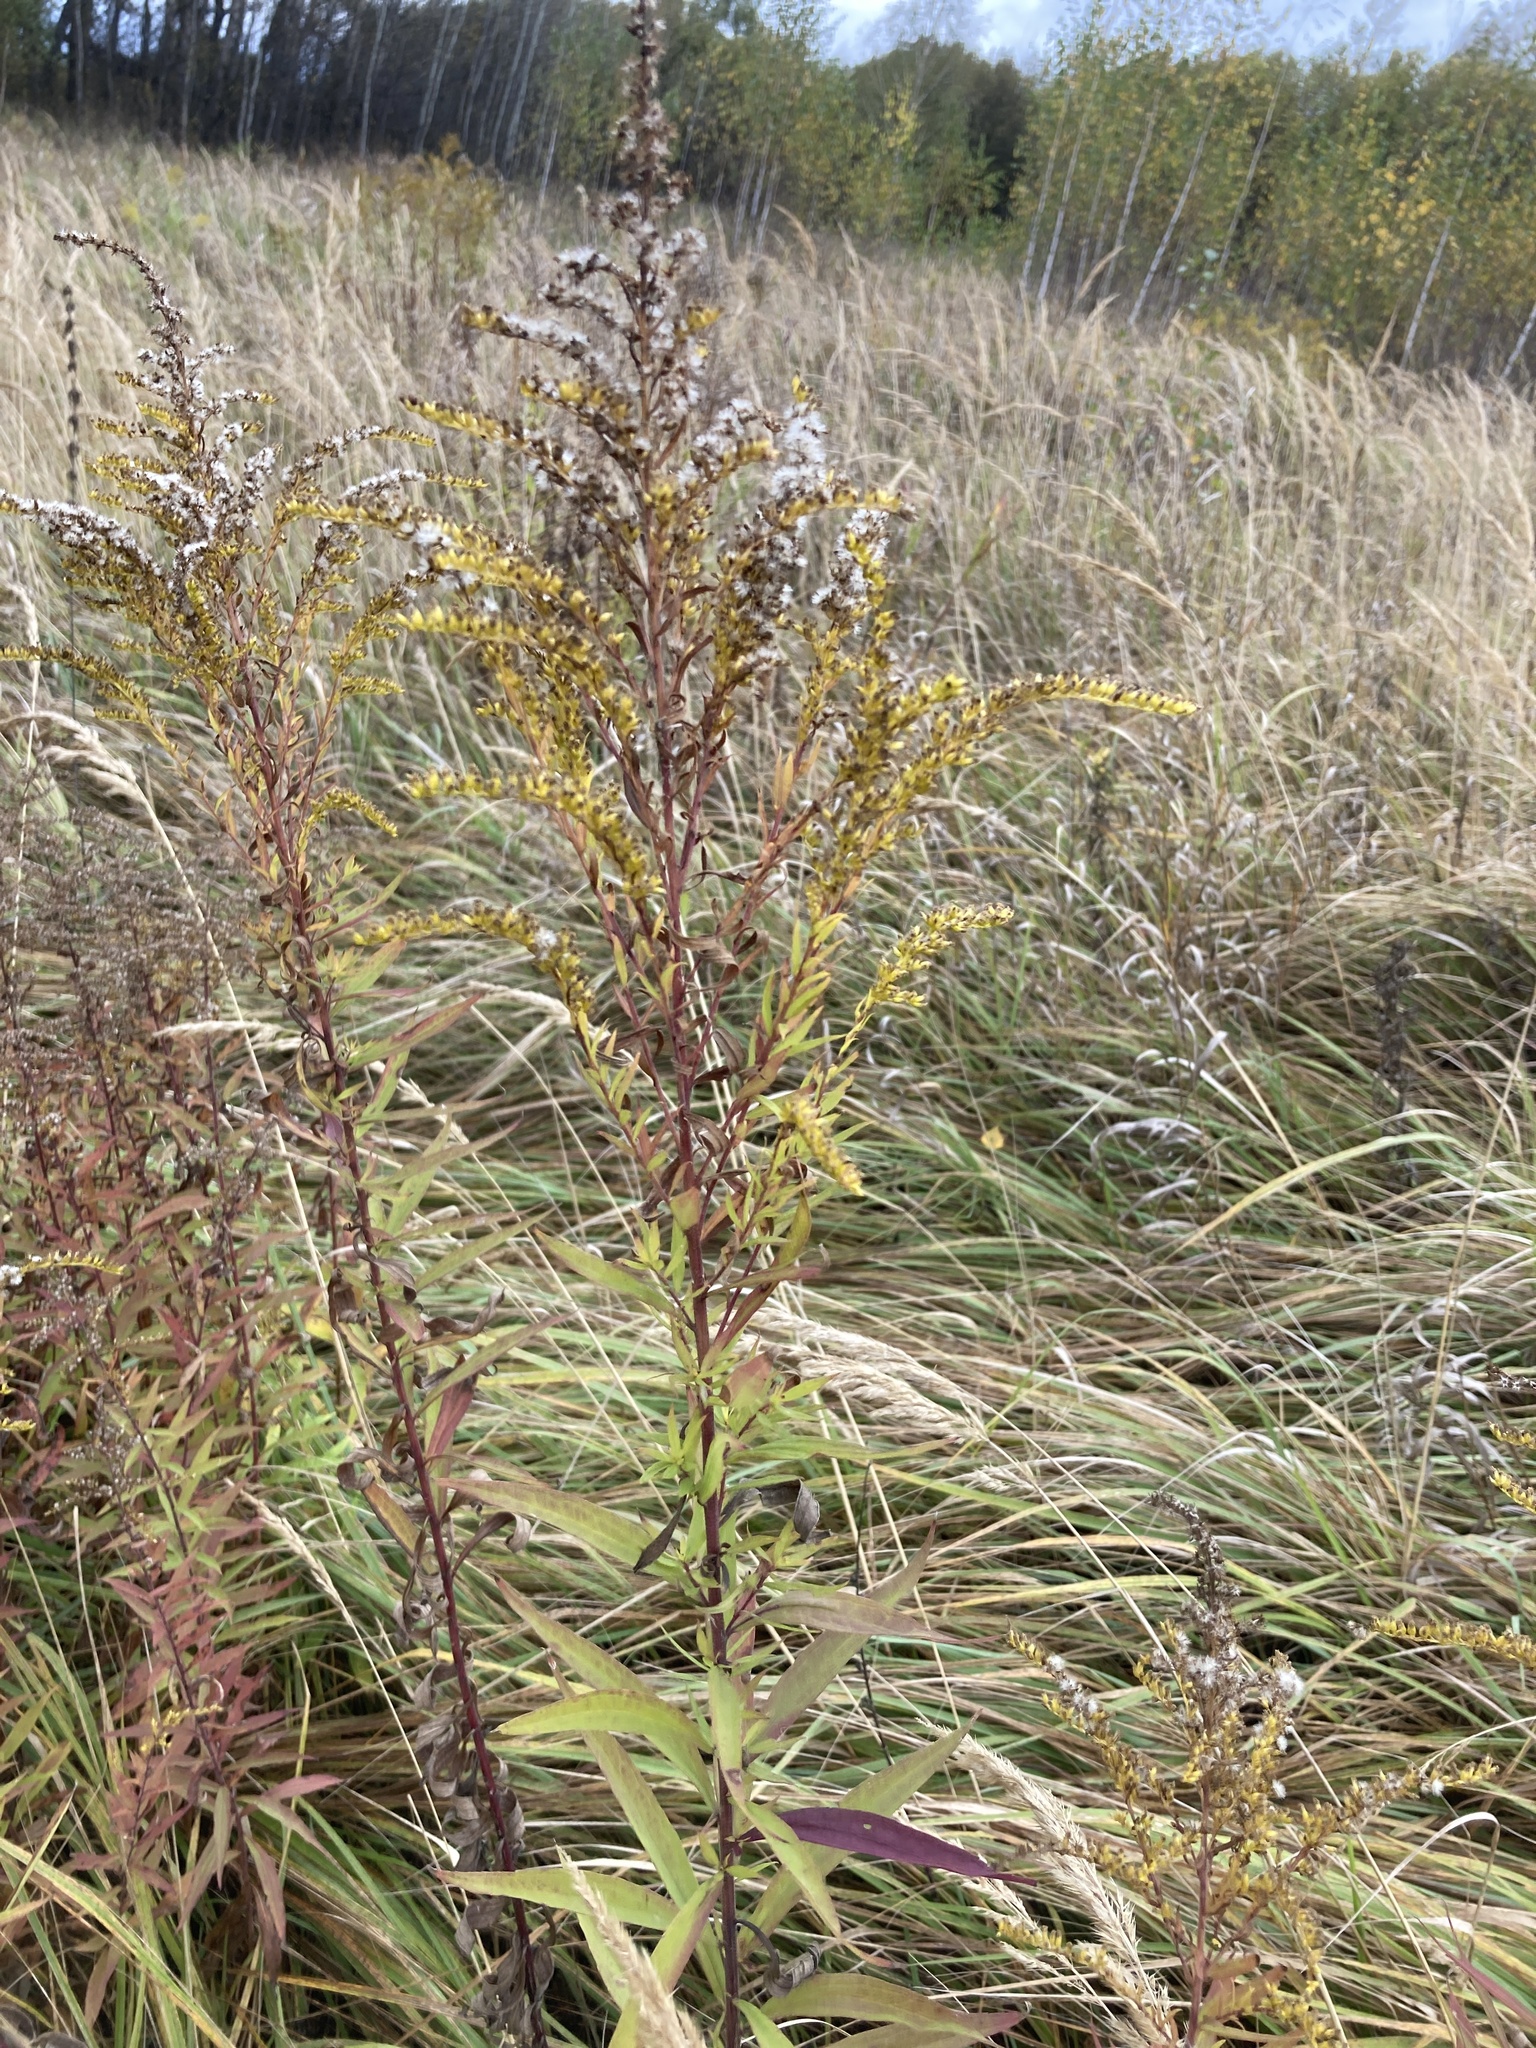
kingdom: Plantae
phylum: Tracheophyta
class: Magnoliopsida
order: Asterales
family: Asteraceae
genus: Solidago
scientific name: Solidago canadensis
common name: Canada goldenrod
